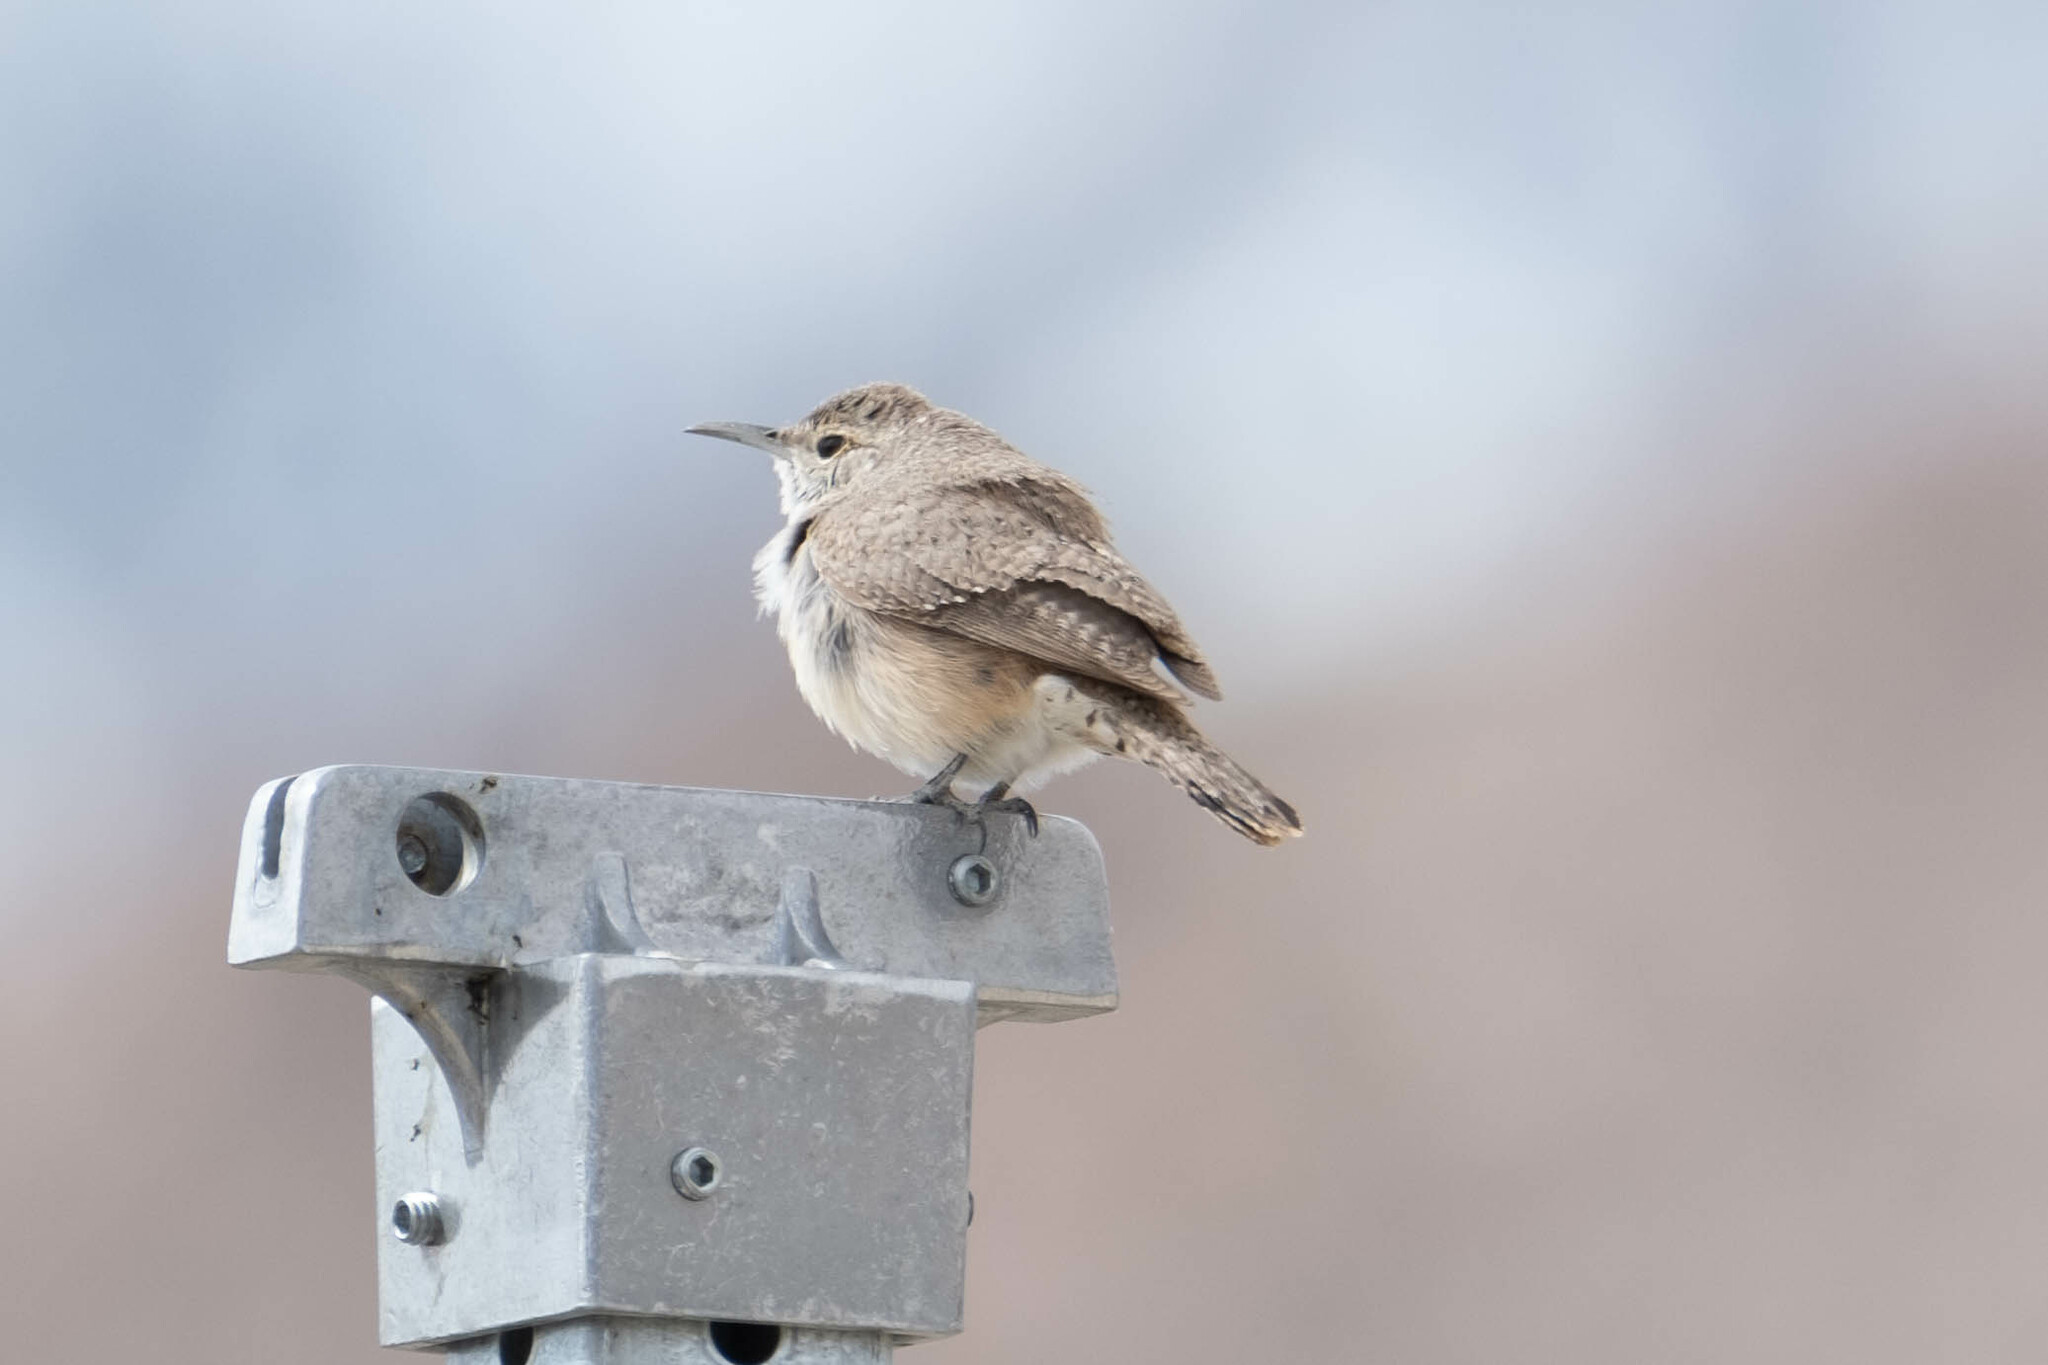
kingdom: Animalia
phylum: Chordata
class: Aves
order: Passeriformes
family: Troglodytidae
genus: Salpinctes
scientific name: Salpinctes obsoletus
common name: Rock wren
